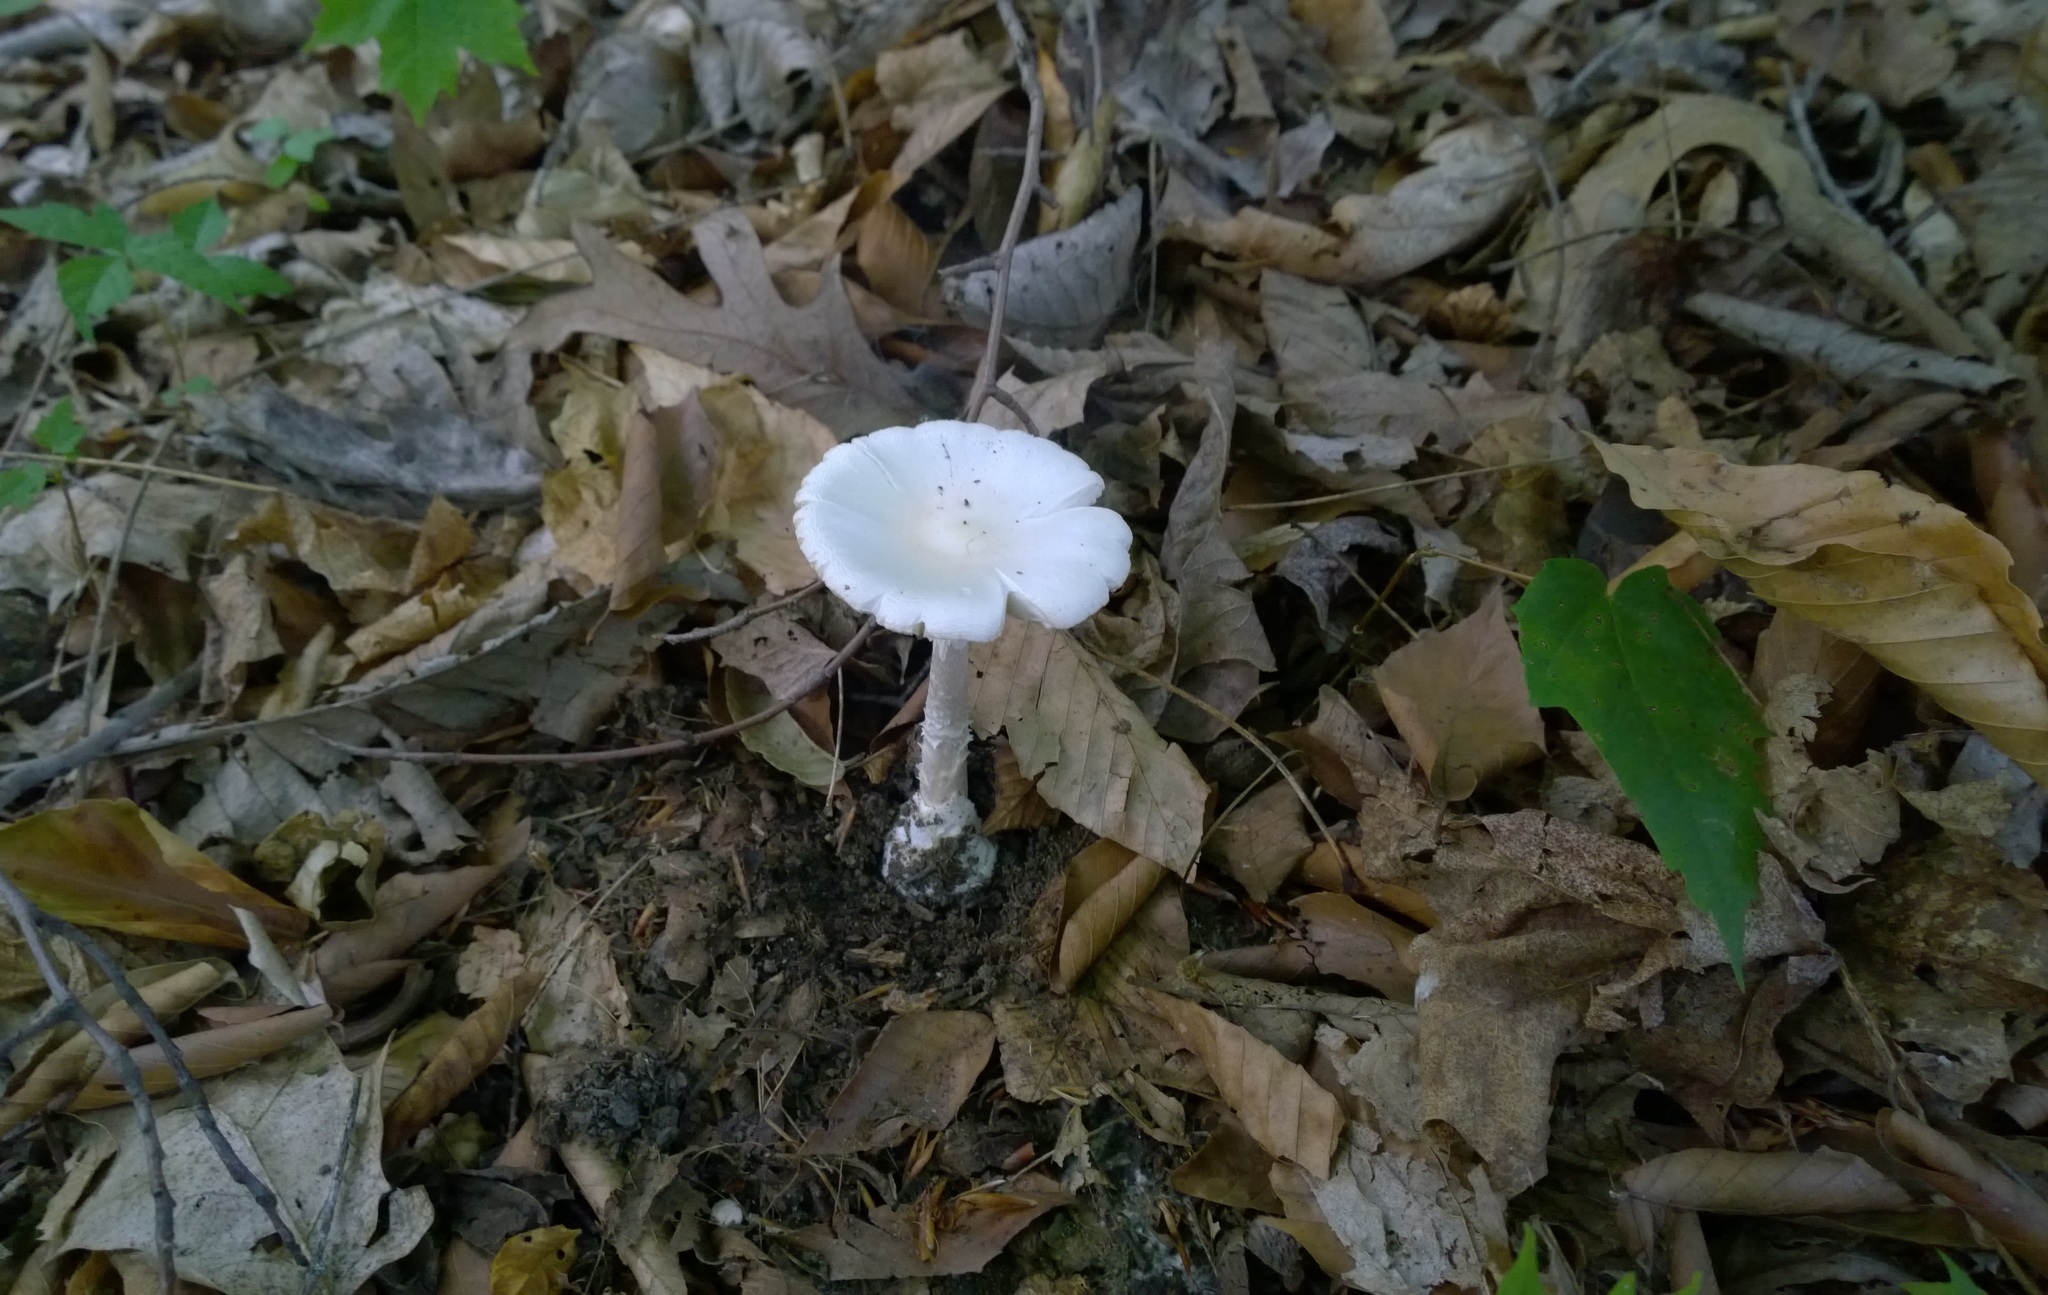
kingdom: Fungi
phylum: Basidiomycota
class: Agaricomycetes
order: Agaricales
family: Amanitaceae
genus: Amanita
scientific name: Amanita bisporigera
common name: Eastern north american destroying angel
